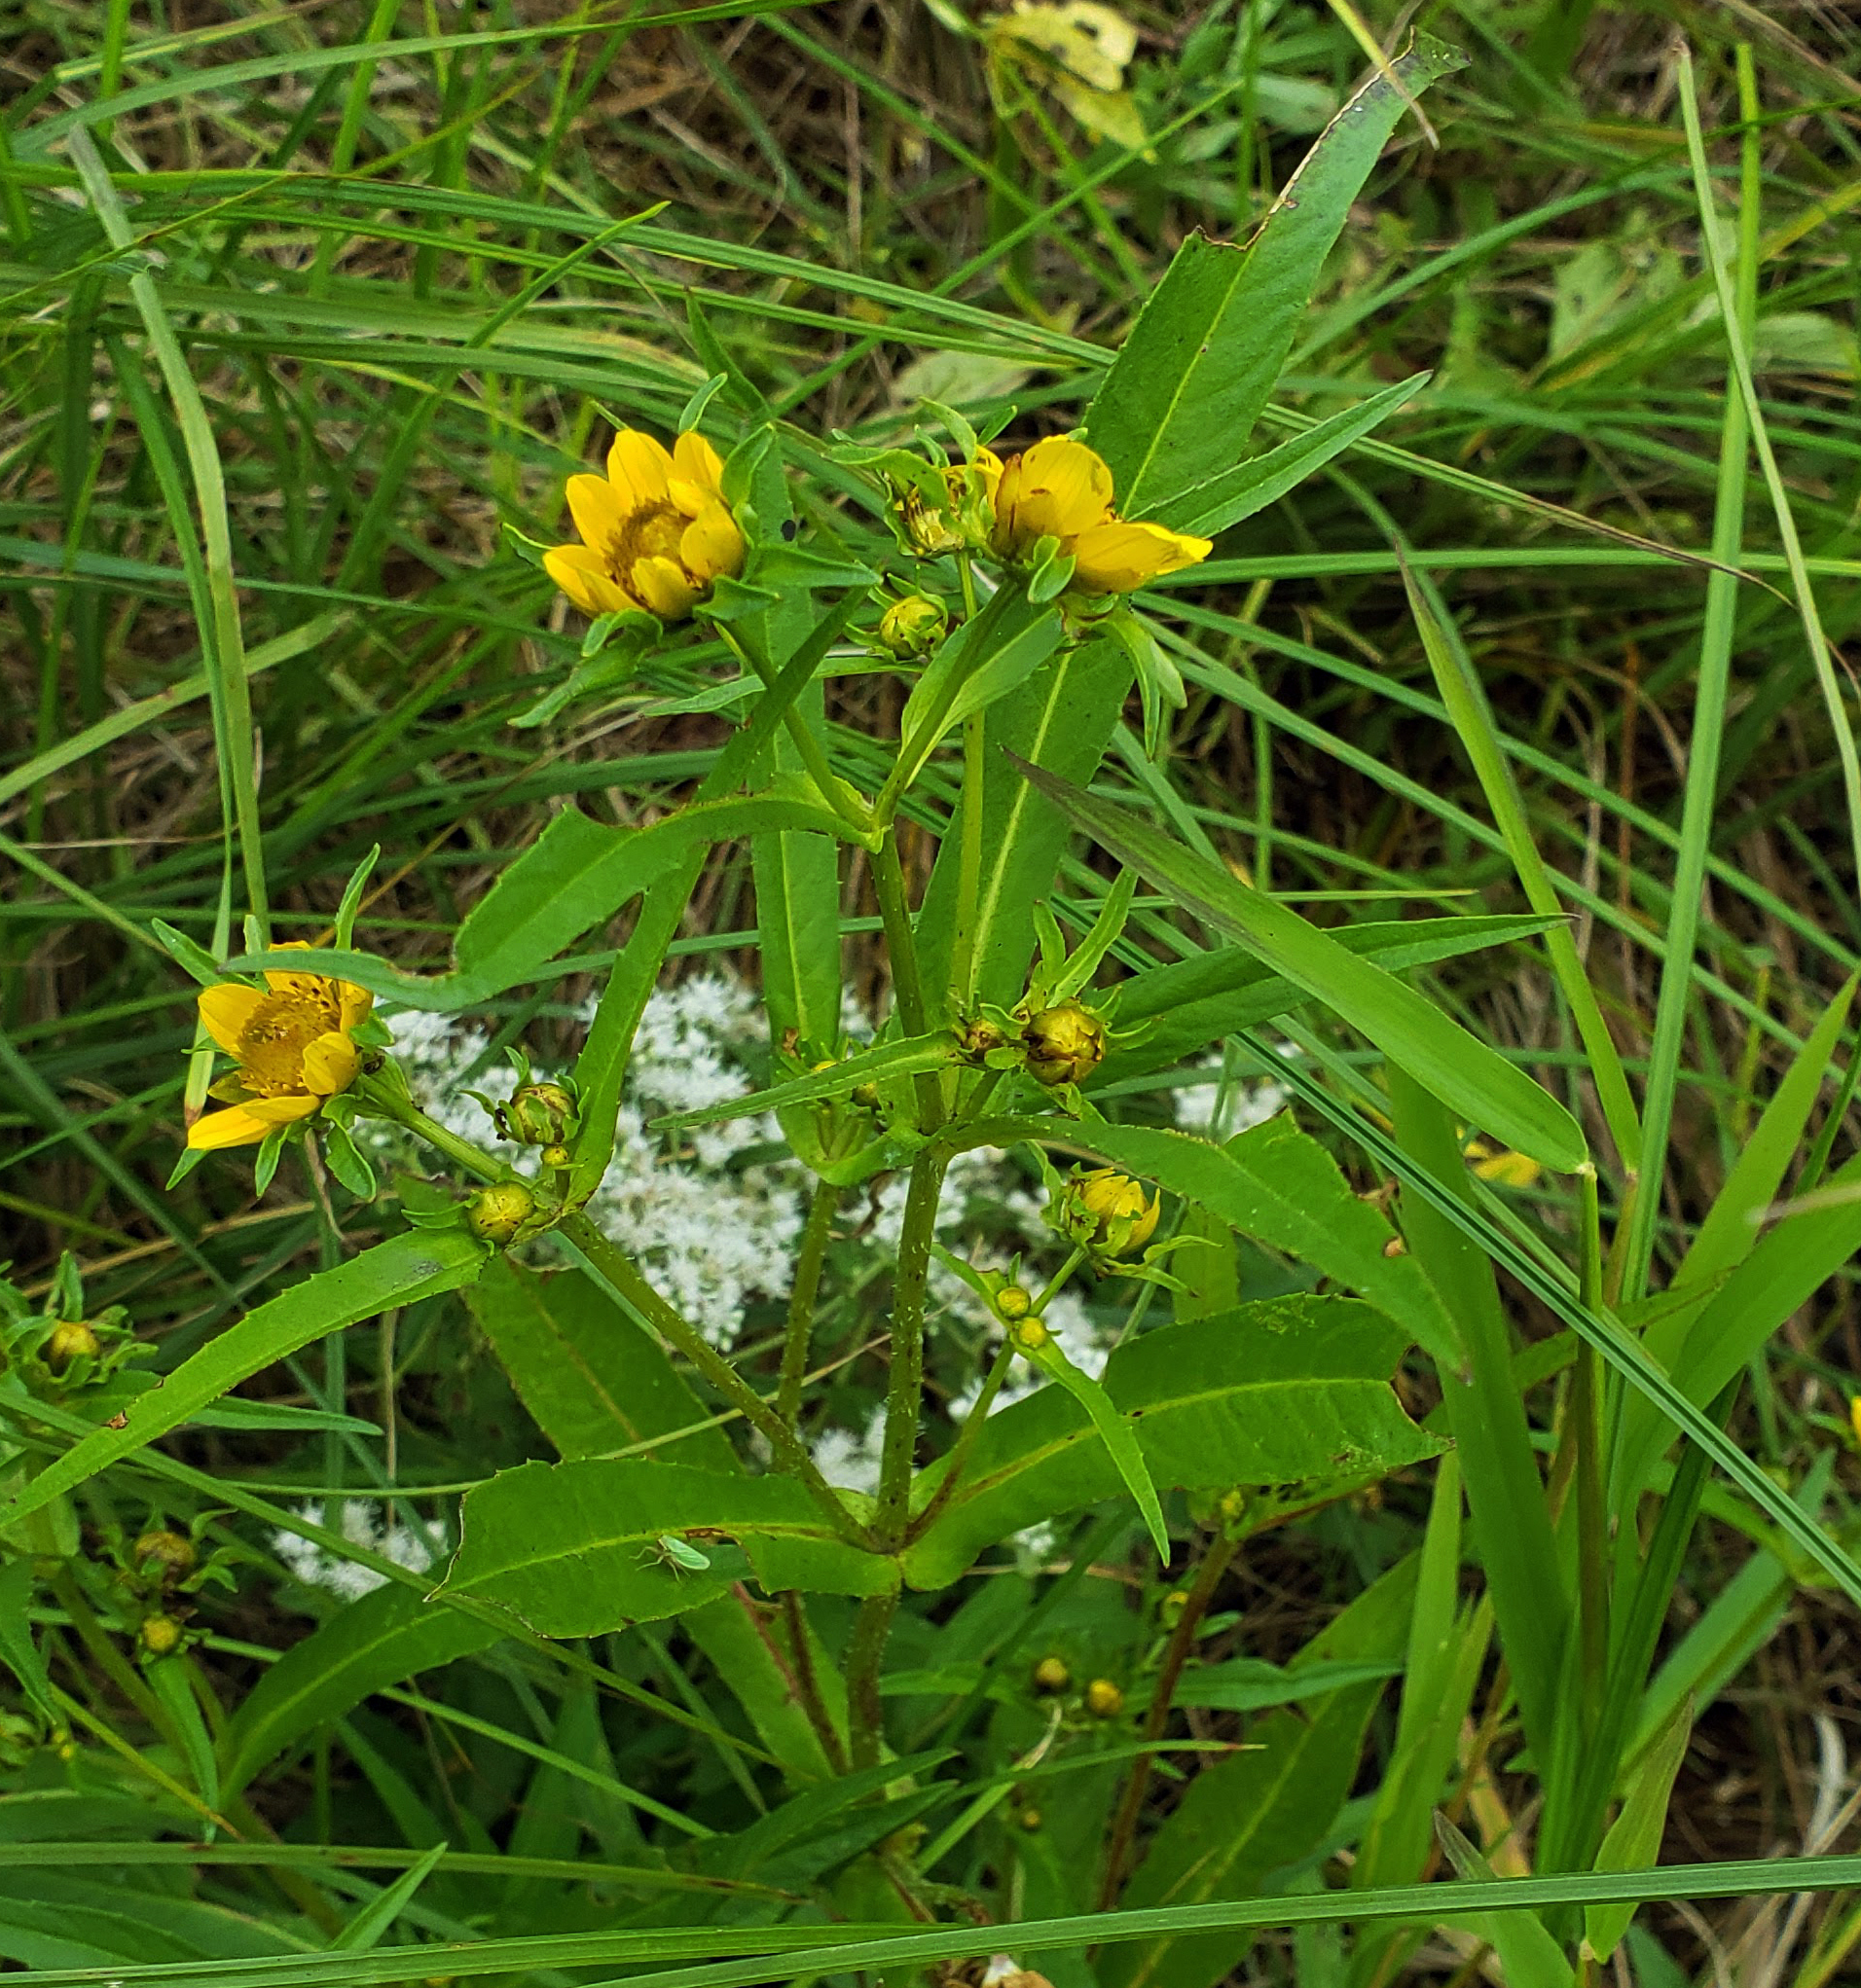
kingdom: Plantae
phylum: Tracheophyta
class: Magnoliopsida
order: Asterales
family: Asteraceae
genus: Bidens
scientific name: Bidens cernua
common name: Nodding bur-marigold
